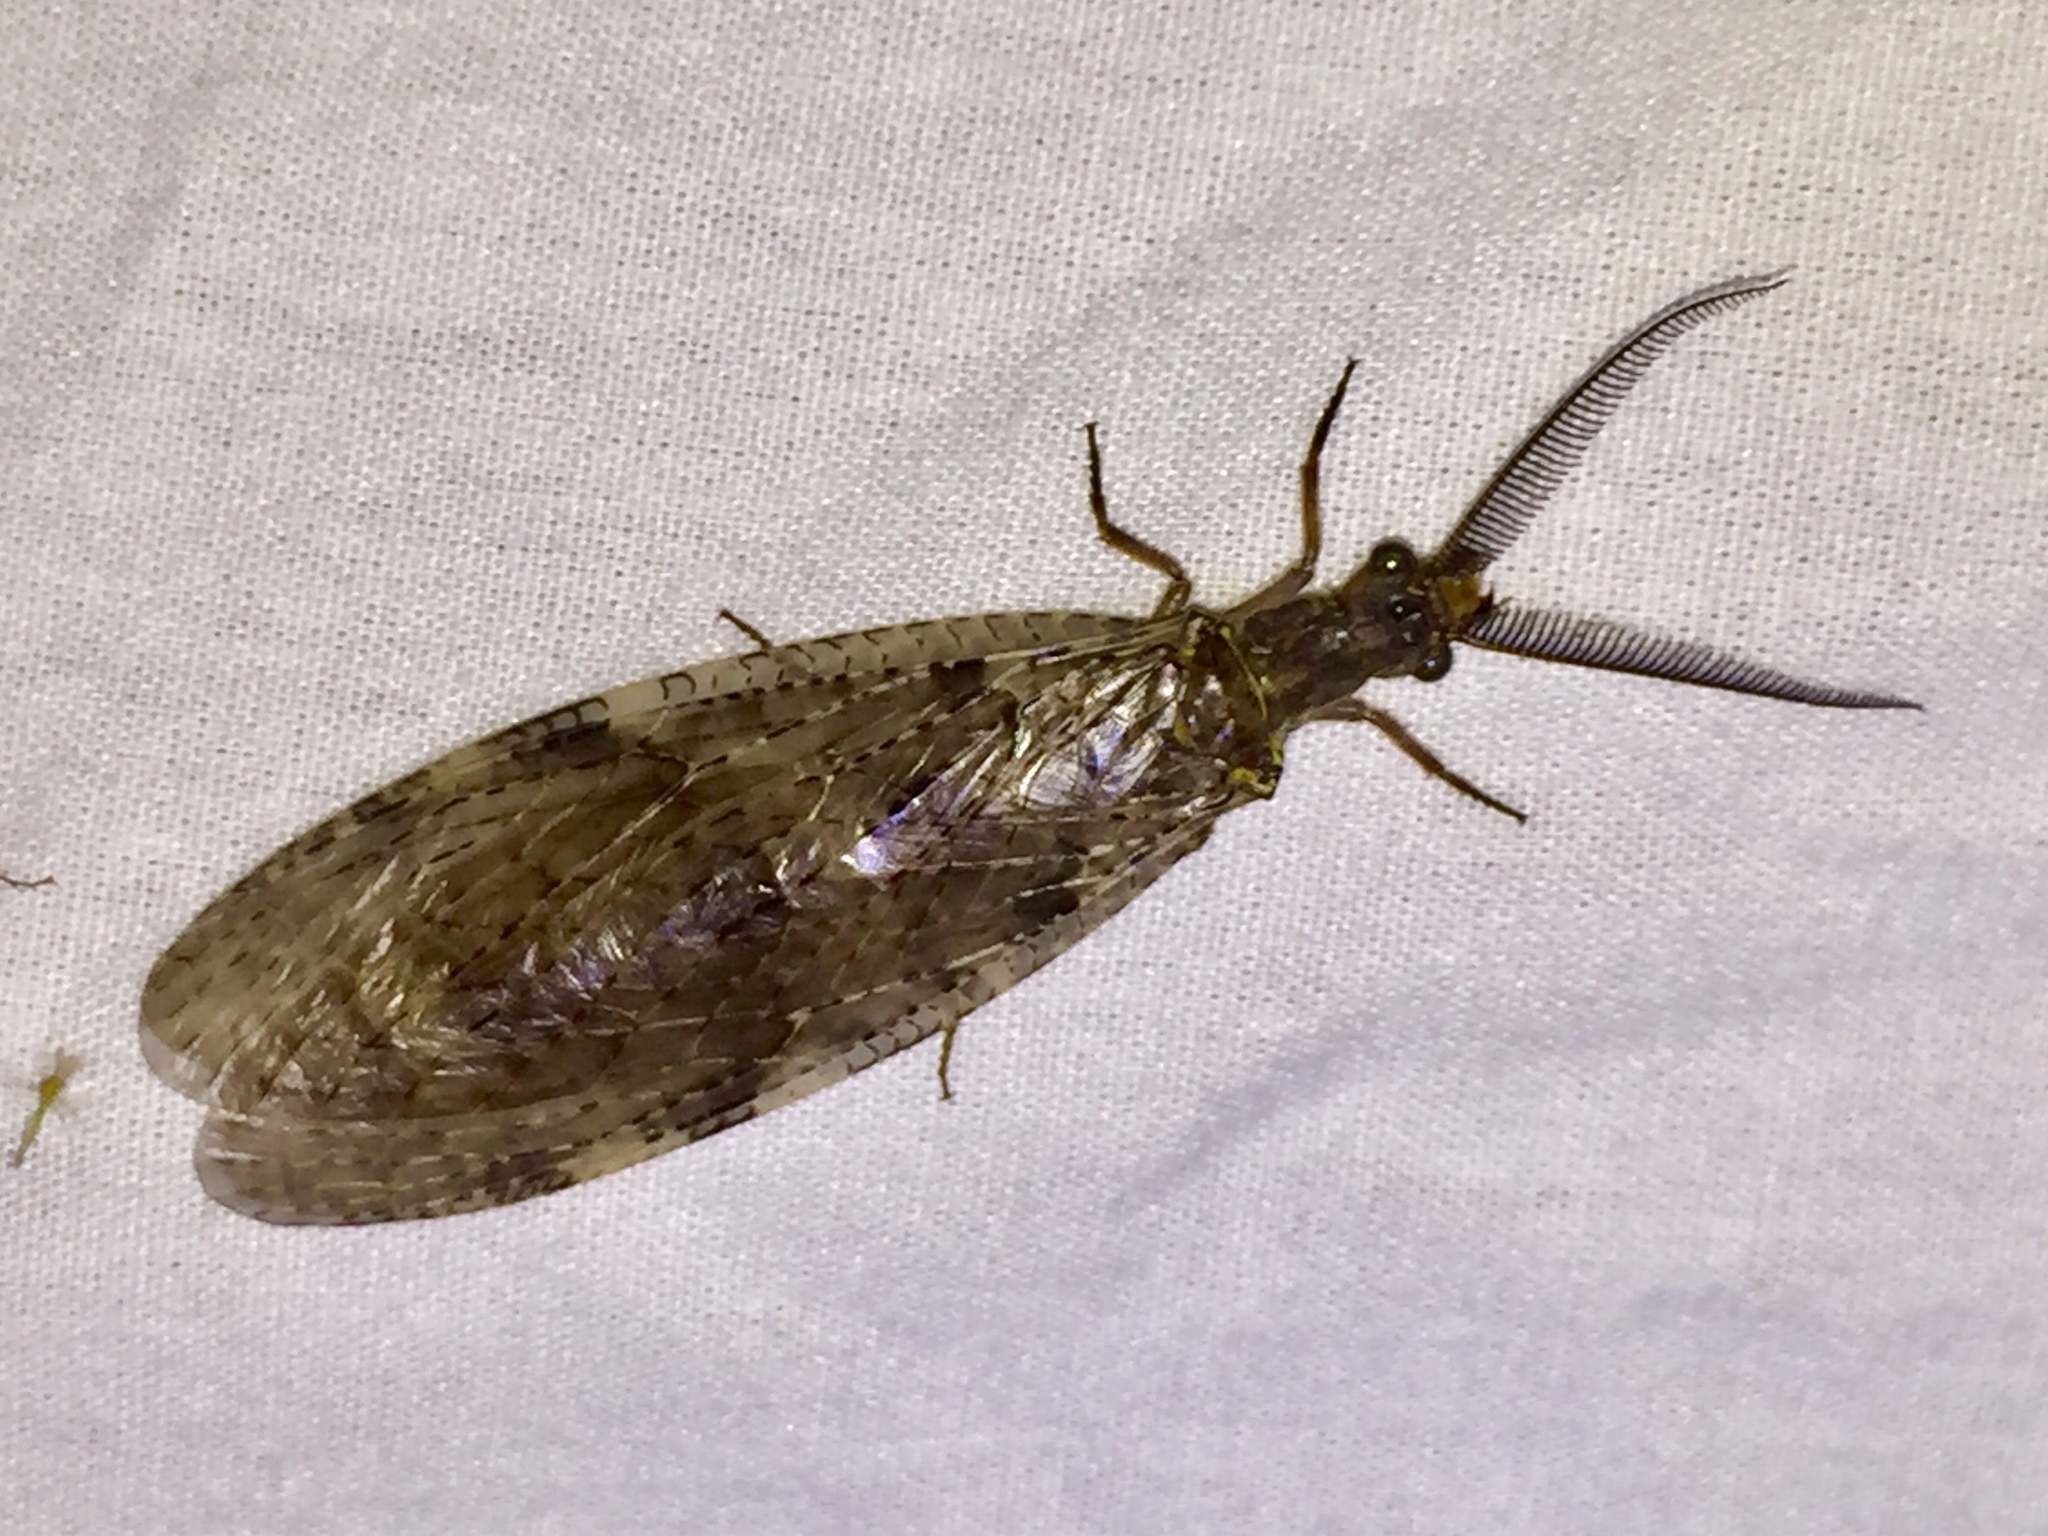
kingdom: Animalia
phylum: Arthropoda
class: Insecta
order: Megaloptera
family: Corydalidae
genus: Chauliodes
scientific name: Chauliodes pectinicornis
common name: Summer fishfly
